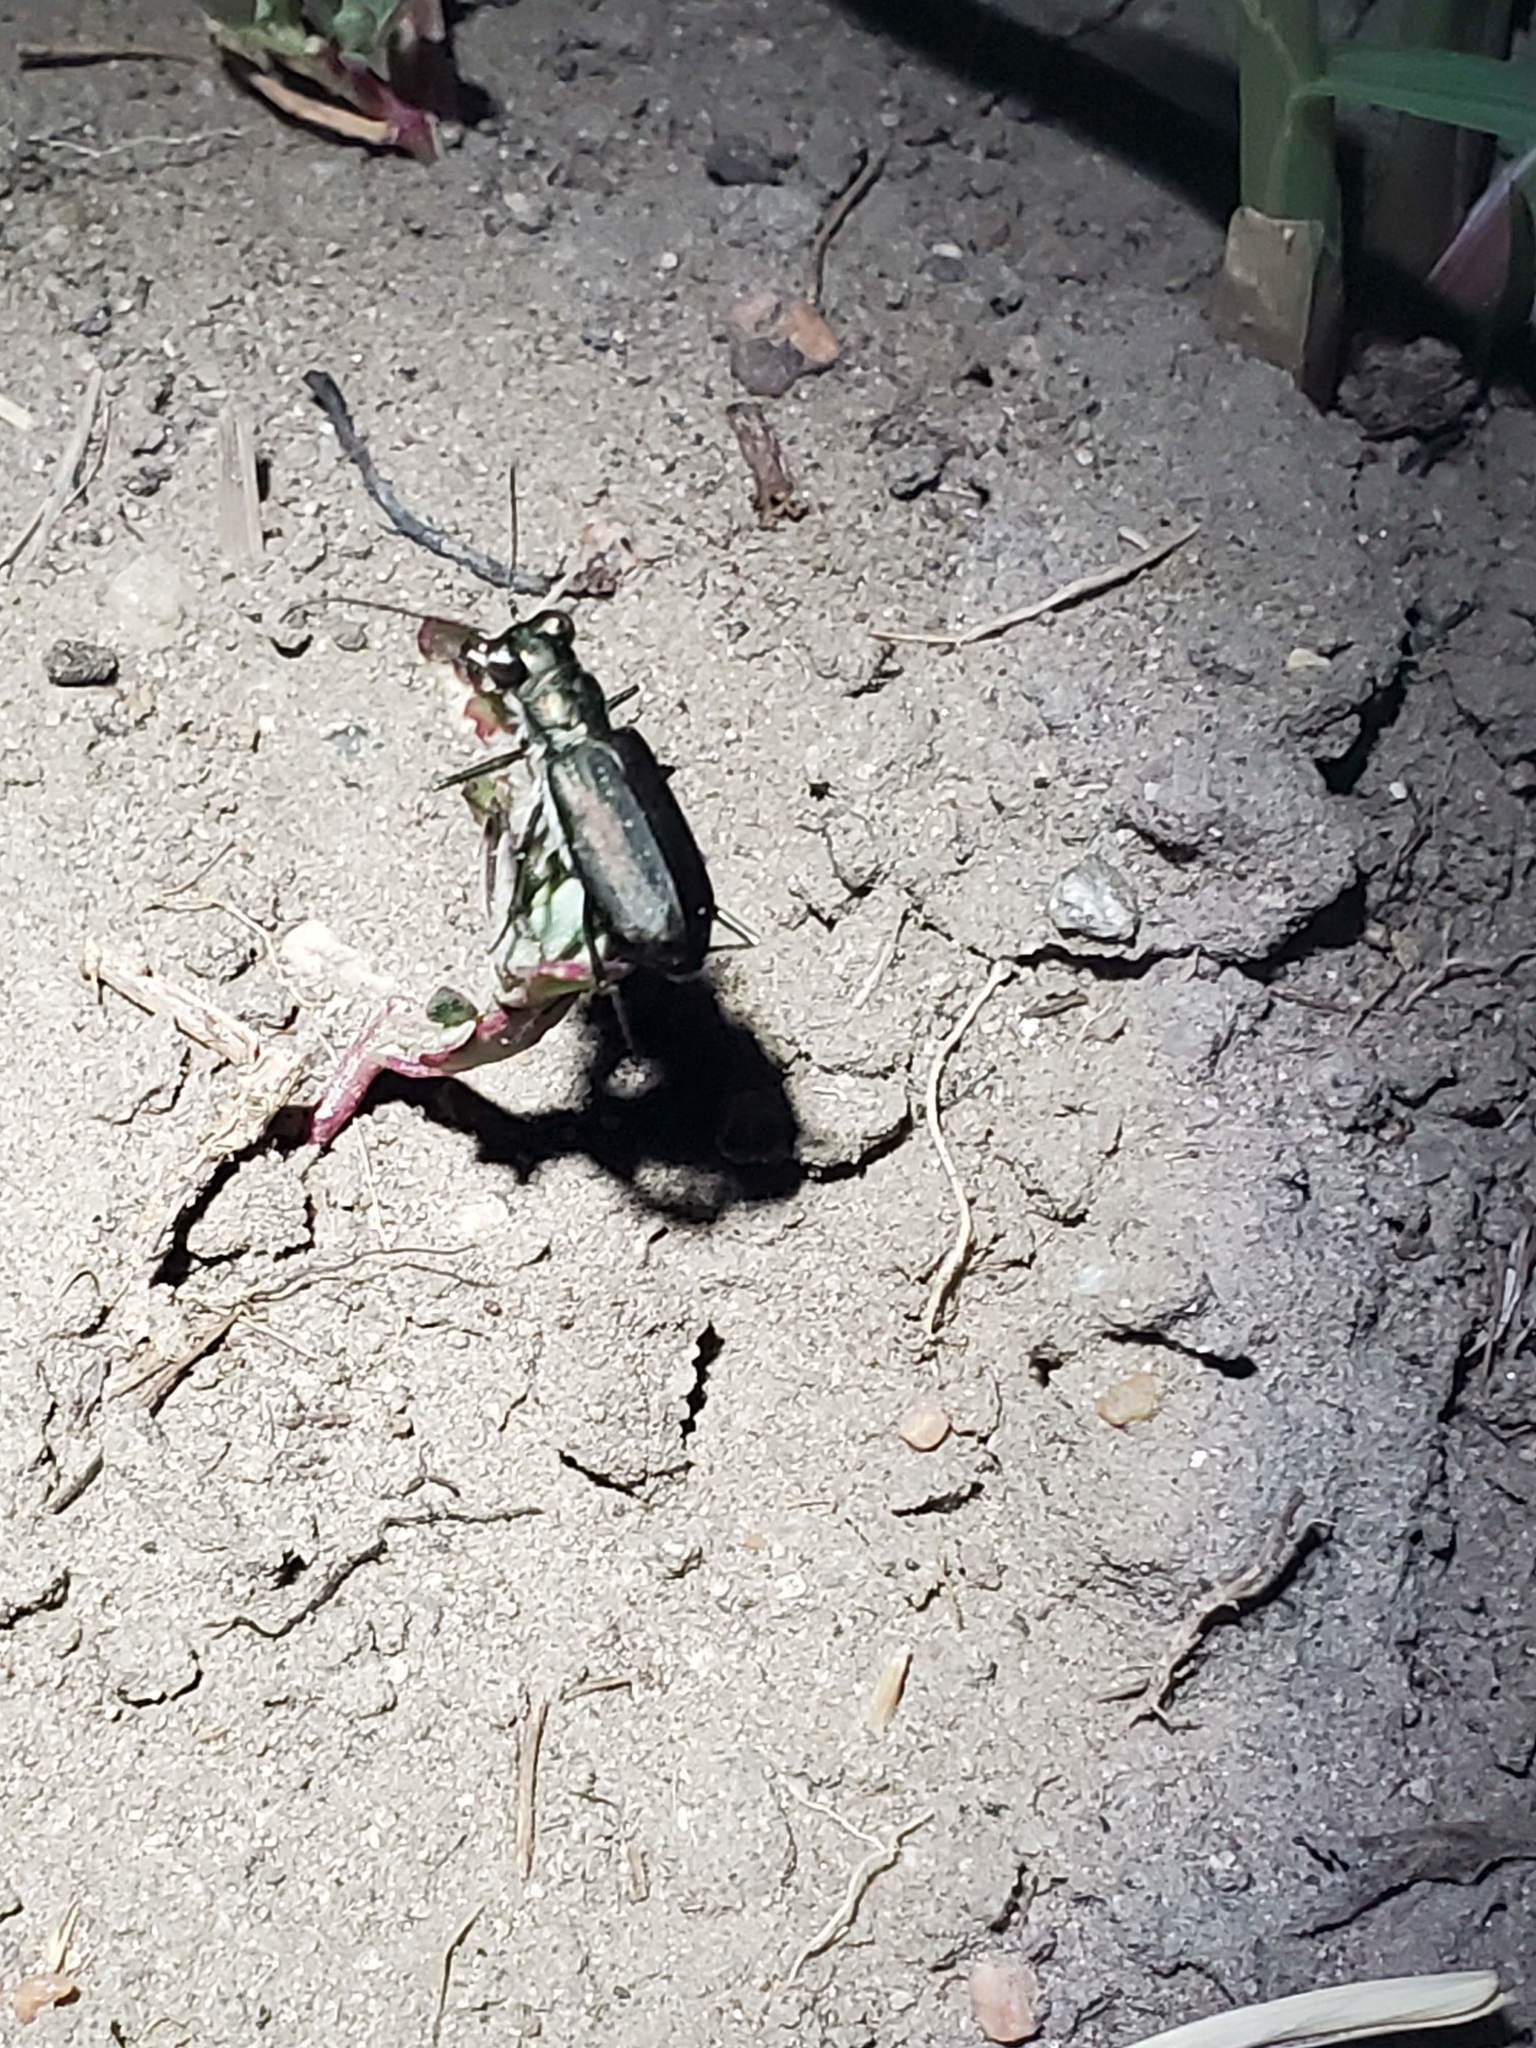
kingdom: Animalia
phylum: Arthropoda
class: Insecta
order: Coleoptera
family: Carabidae
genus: Cicindela
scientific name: Cicindela punctulata
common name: Punctured tiger beetle
